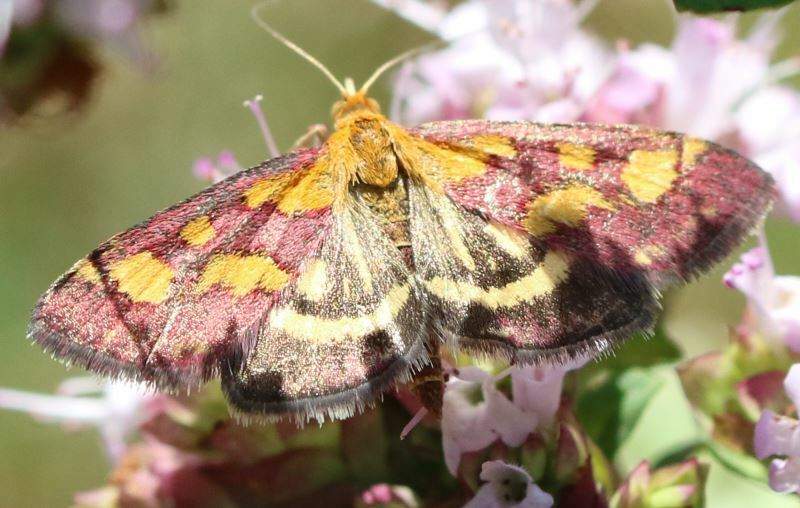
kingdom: Animalia
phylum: Arthropoda
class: Insecta
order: Lepidoptera
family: Crambidae
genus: Pyrausta
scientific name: Pyrausta purpuralis
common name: Common purple & gold
